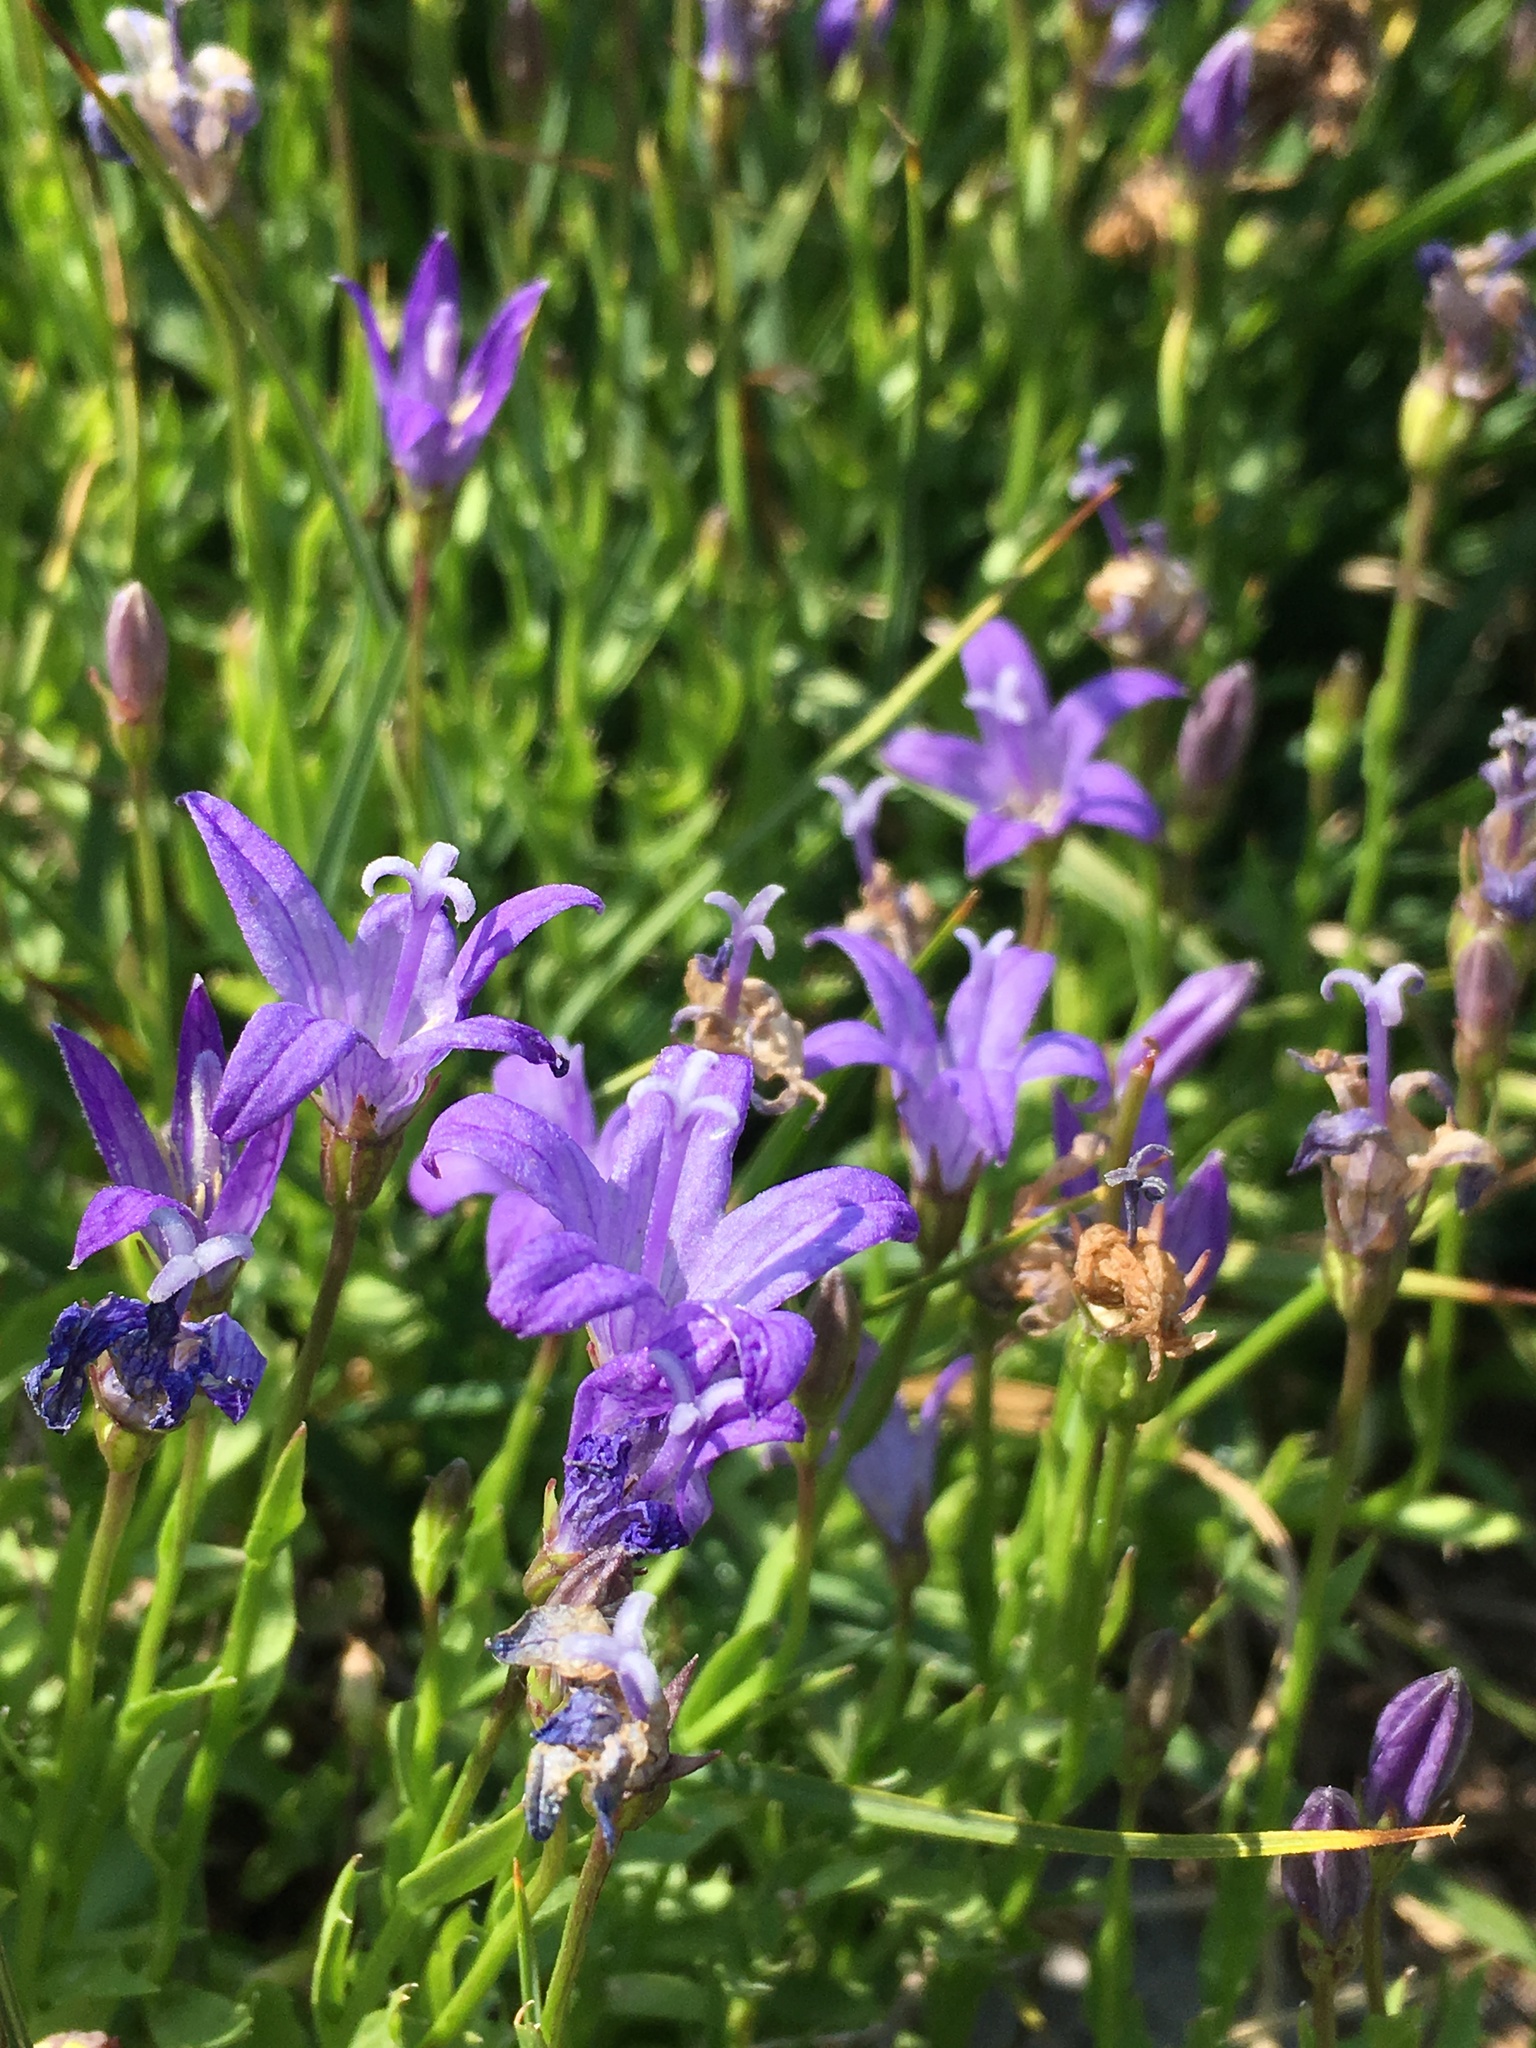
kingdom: Plantae
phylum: Tracheophyta
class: Magnoliopsida
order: Asterales
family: Campanulaceae
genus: Smithiastrum
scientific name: Smithiastrum wilkinsianum
